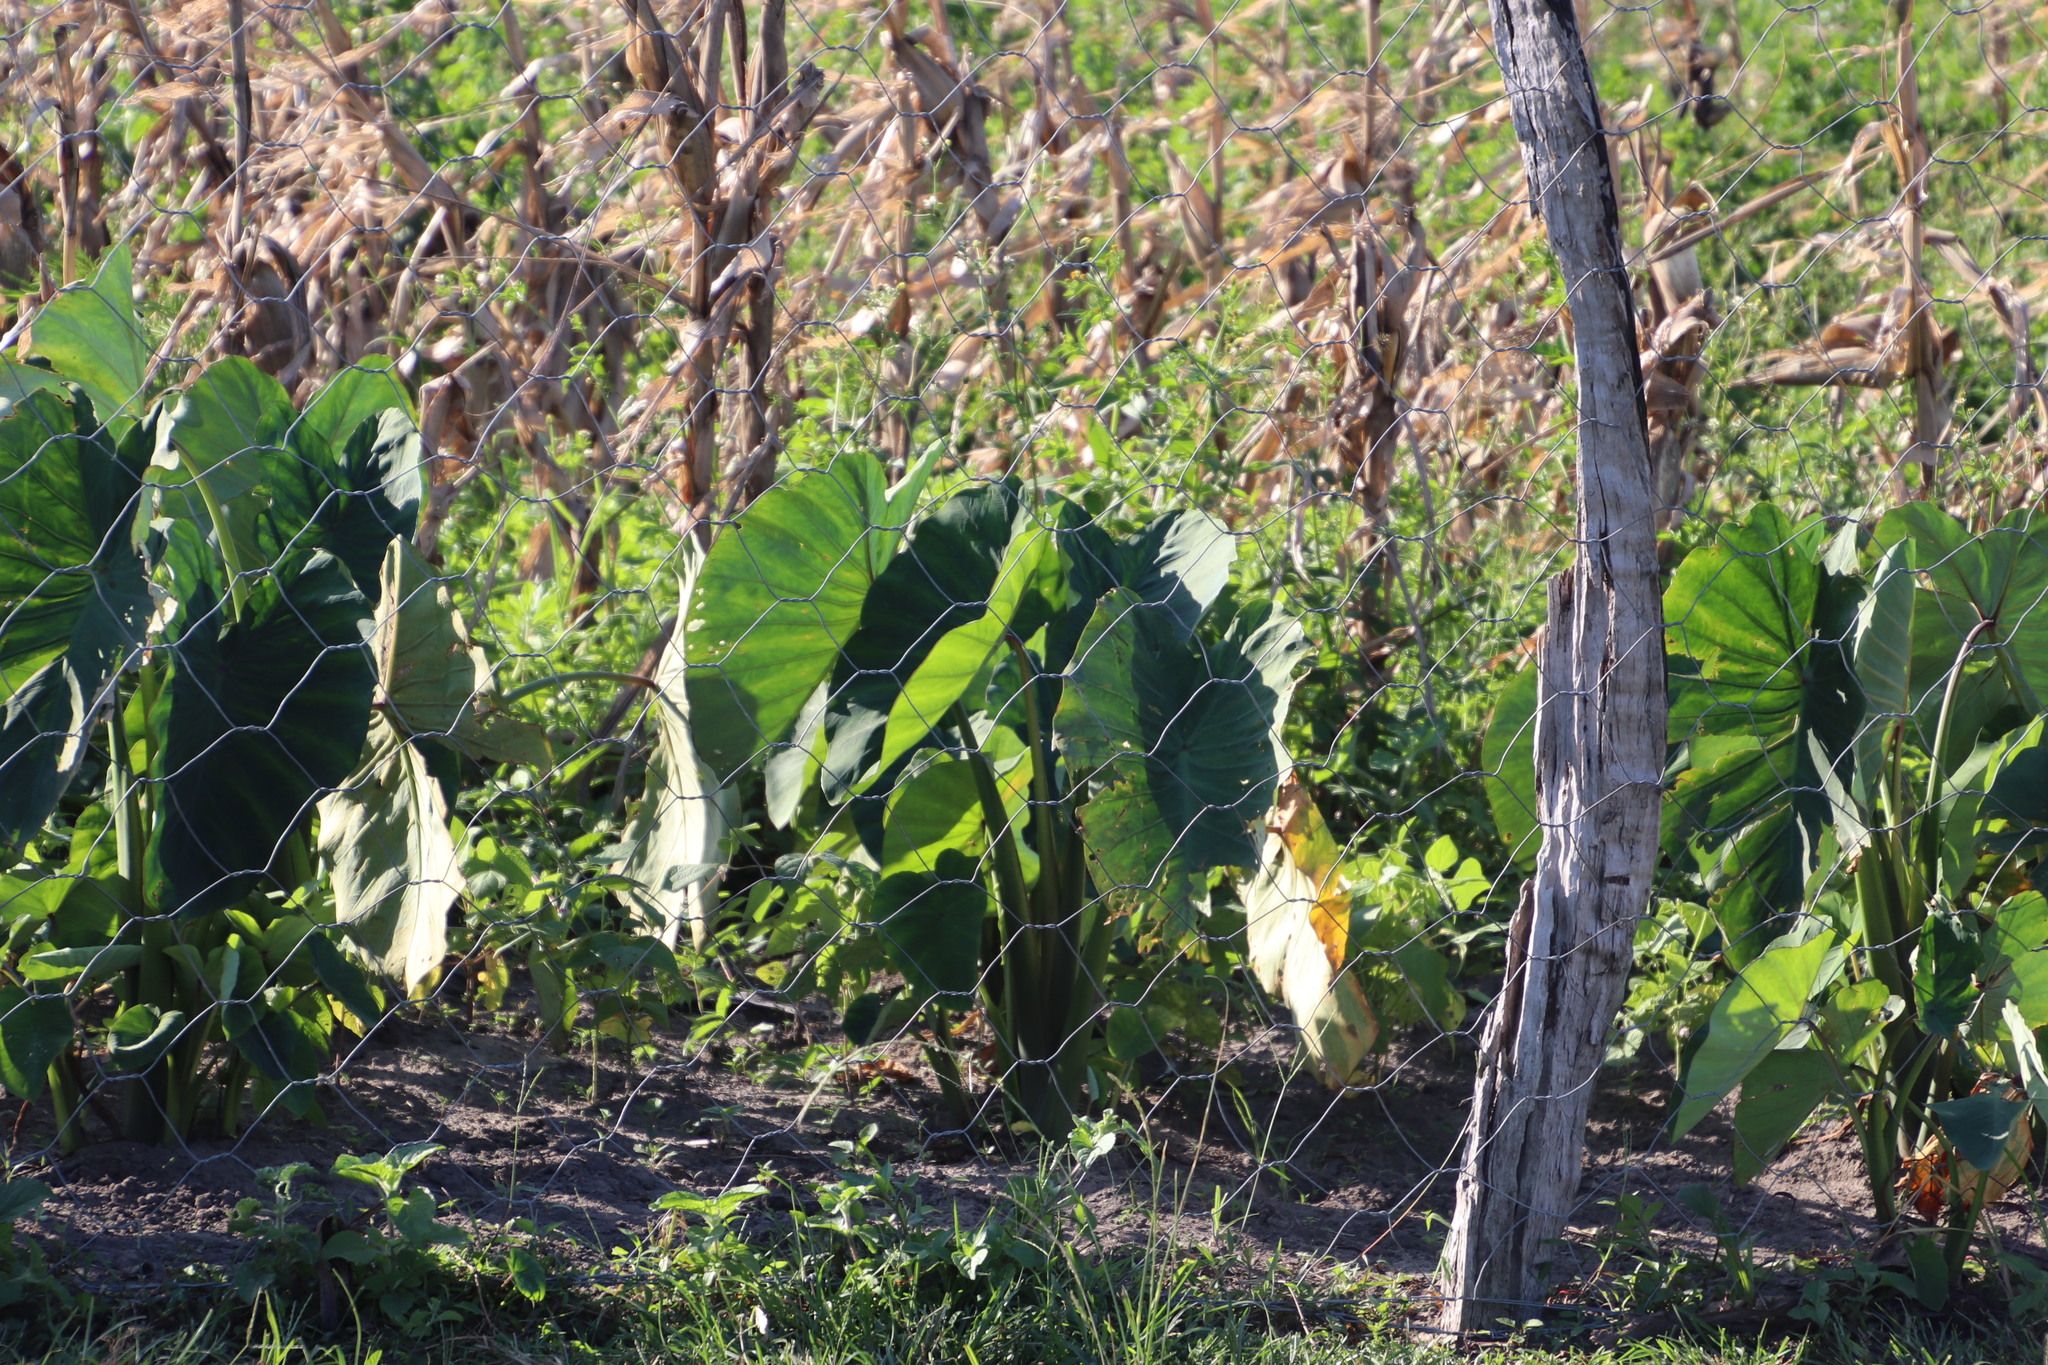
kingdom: Plantae
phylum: Tracheophyta
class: Liliopsida
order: Alismatales
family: Araceae
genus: Colocasia
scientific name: Colocasia esculenta
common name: Taro
